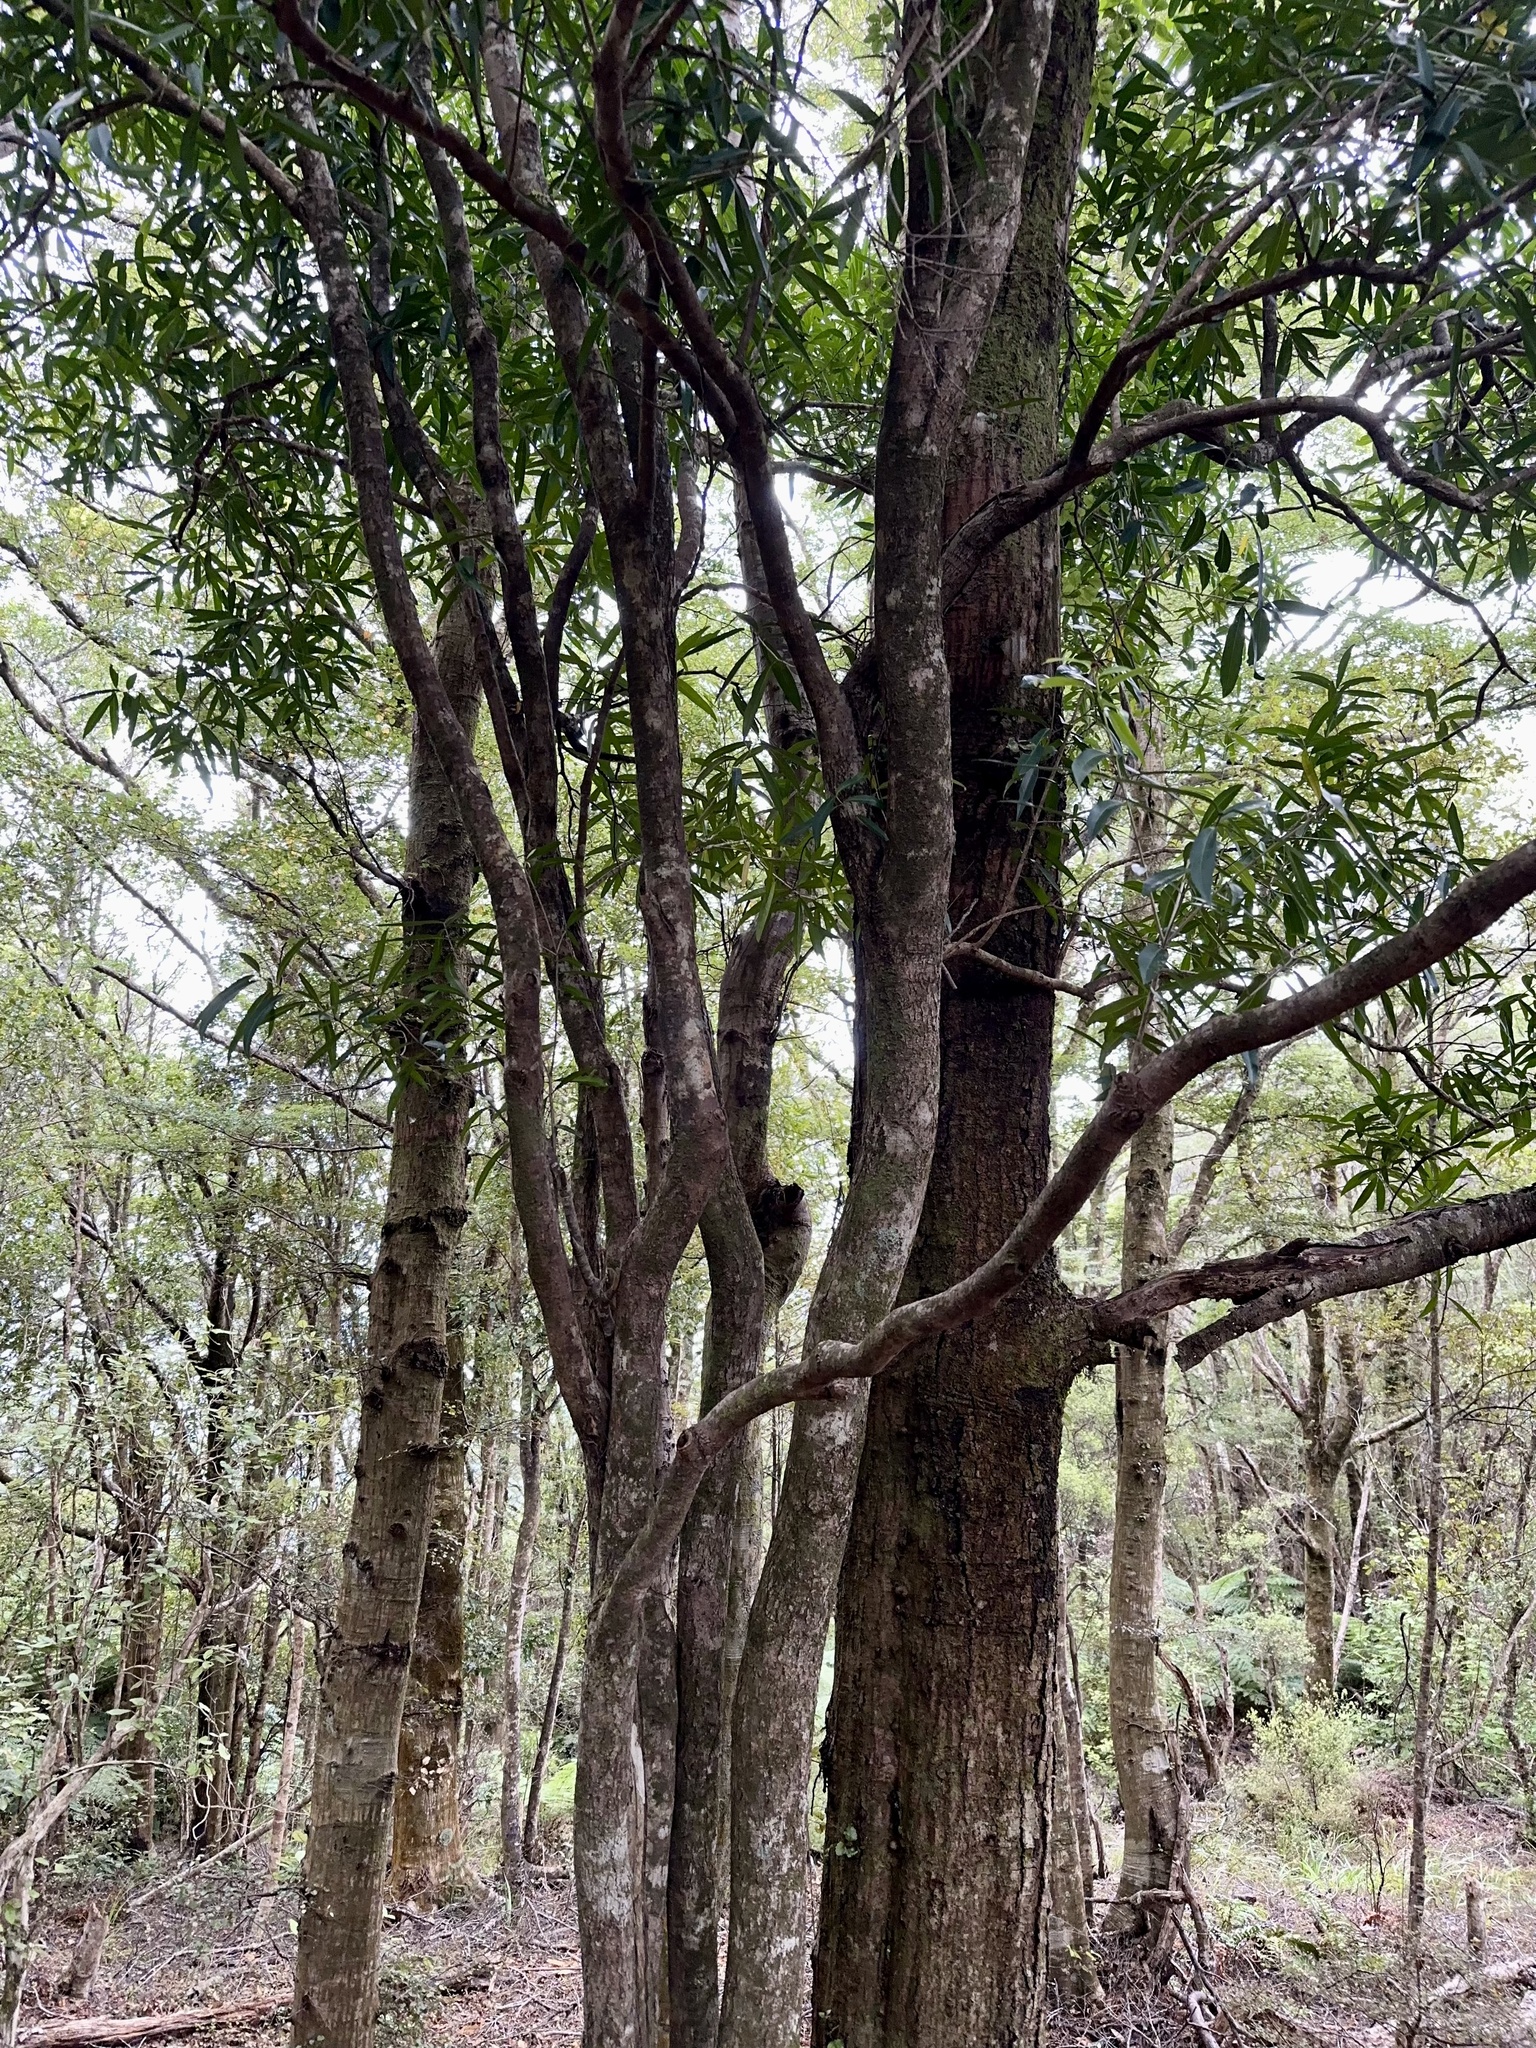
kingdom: Plantae
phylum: Tracheophyta
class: Magnoliopsida
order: Lamiales
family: Oleaceae
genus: Nestegis
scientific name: Nestegis lanceolata
